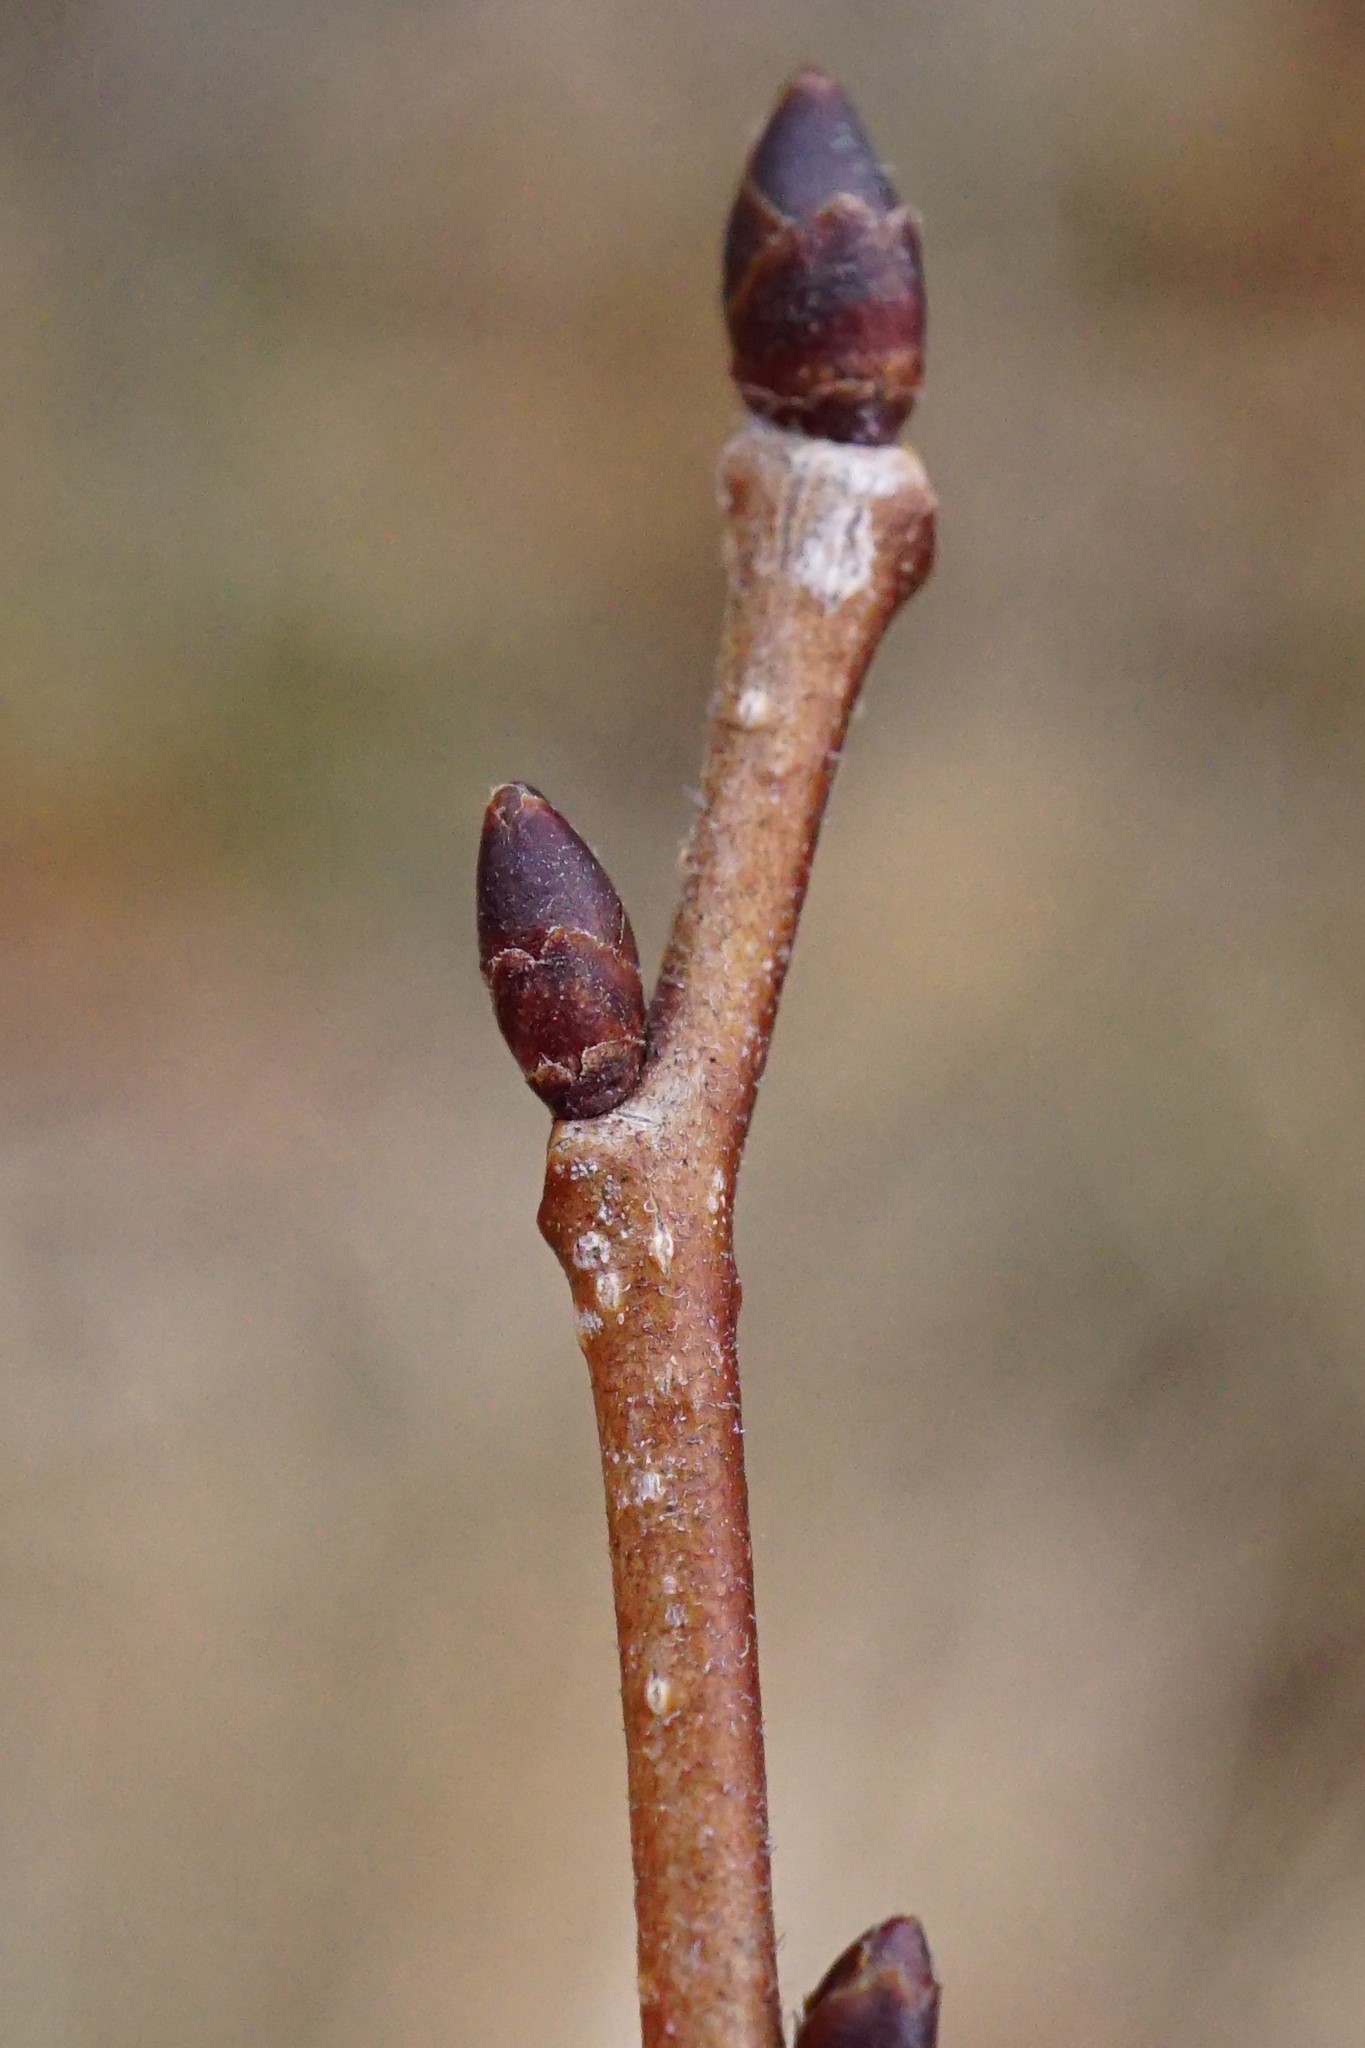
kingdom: Plantae
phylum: Tracheophyta
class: Magnoliopsida
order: Rosales
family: Ulmaceae
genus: Ulmus
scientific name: Ulmus minor
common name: Small-leaved elm
